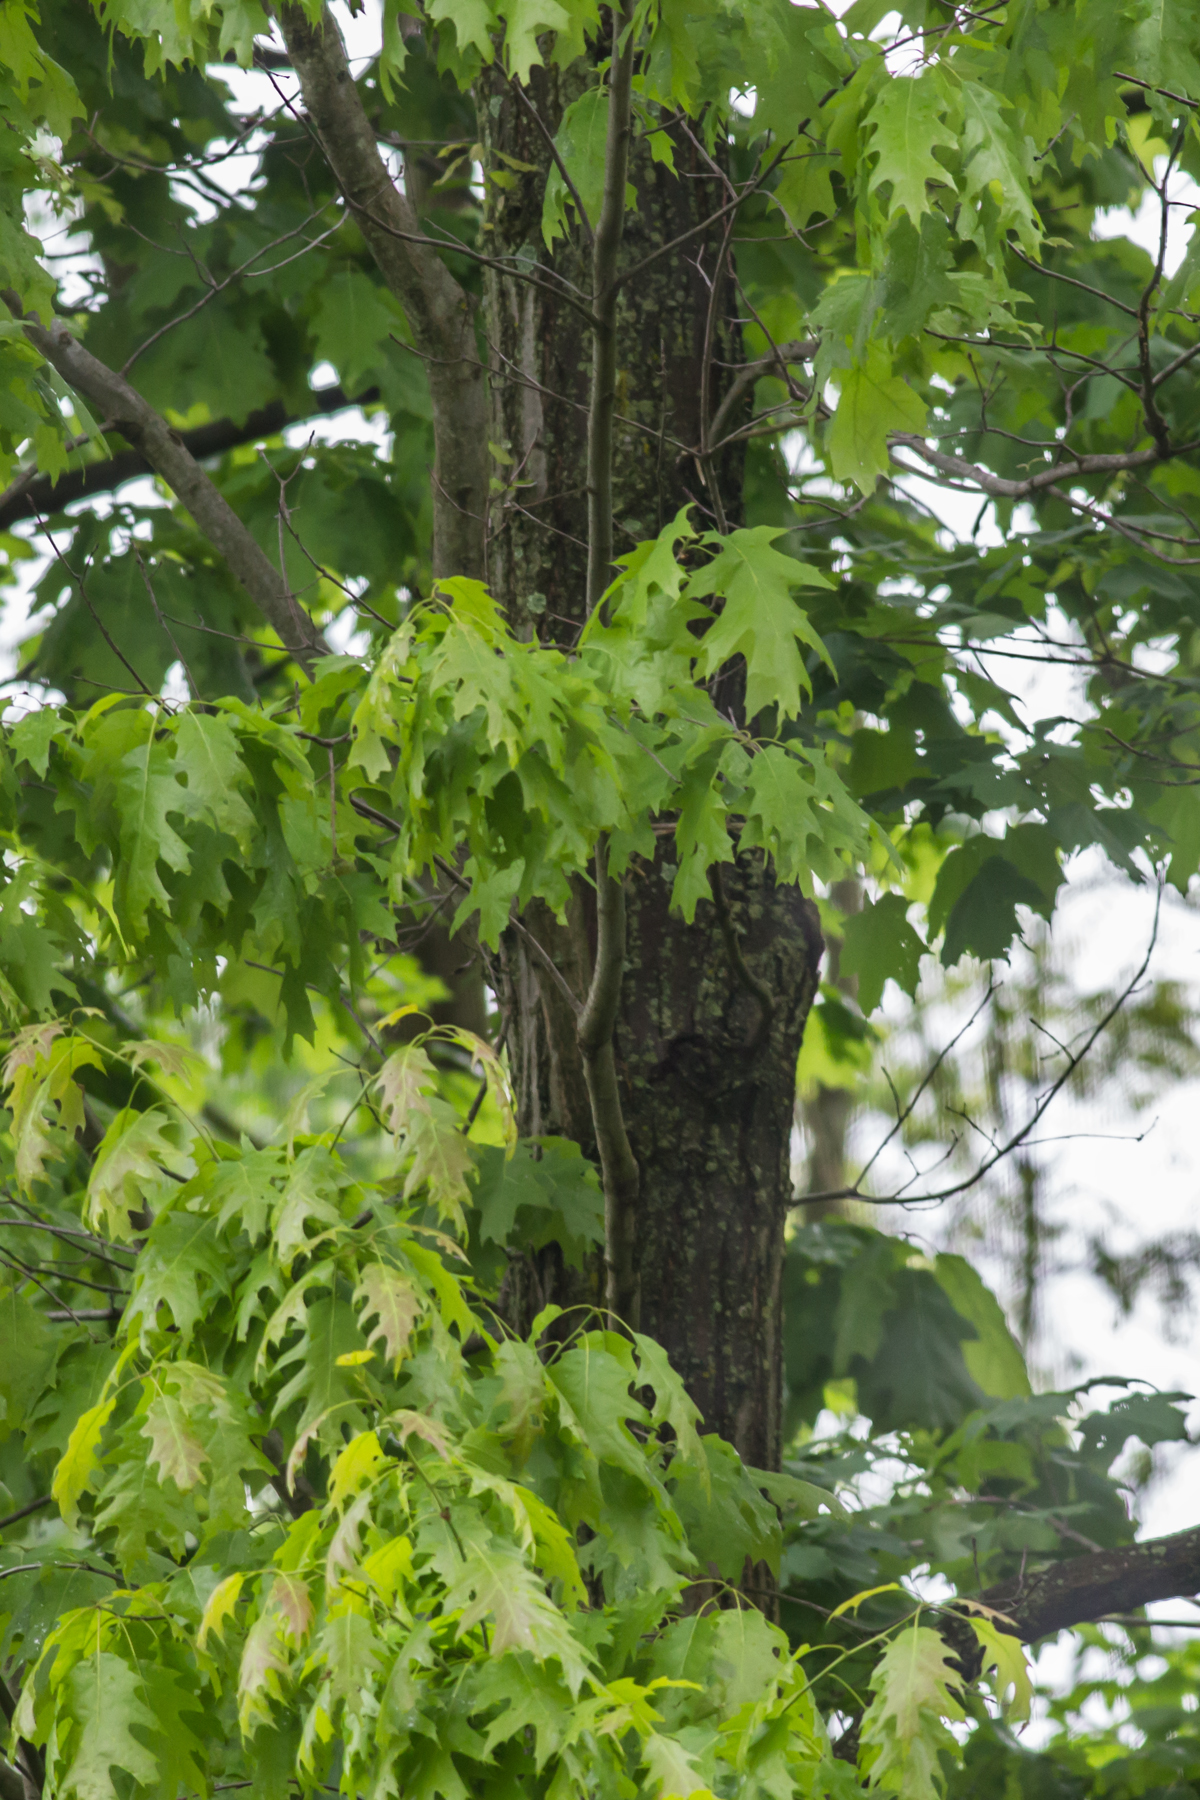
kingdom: Plantae
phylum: Tracheophyta
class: Magnoliopsida
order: Fagales
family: Fagaceae
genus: Quercus
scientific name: Quercus rubra
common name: Red oak
